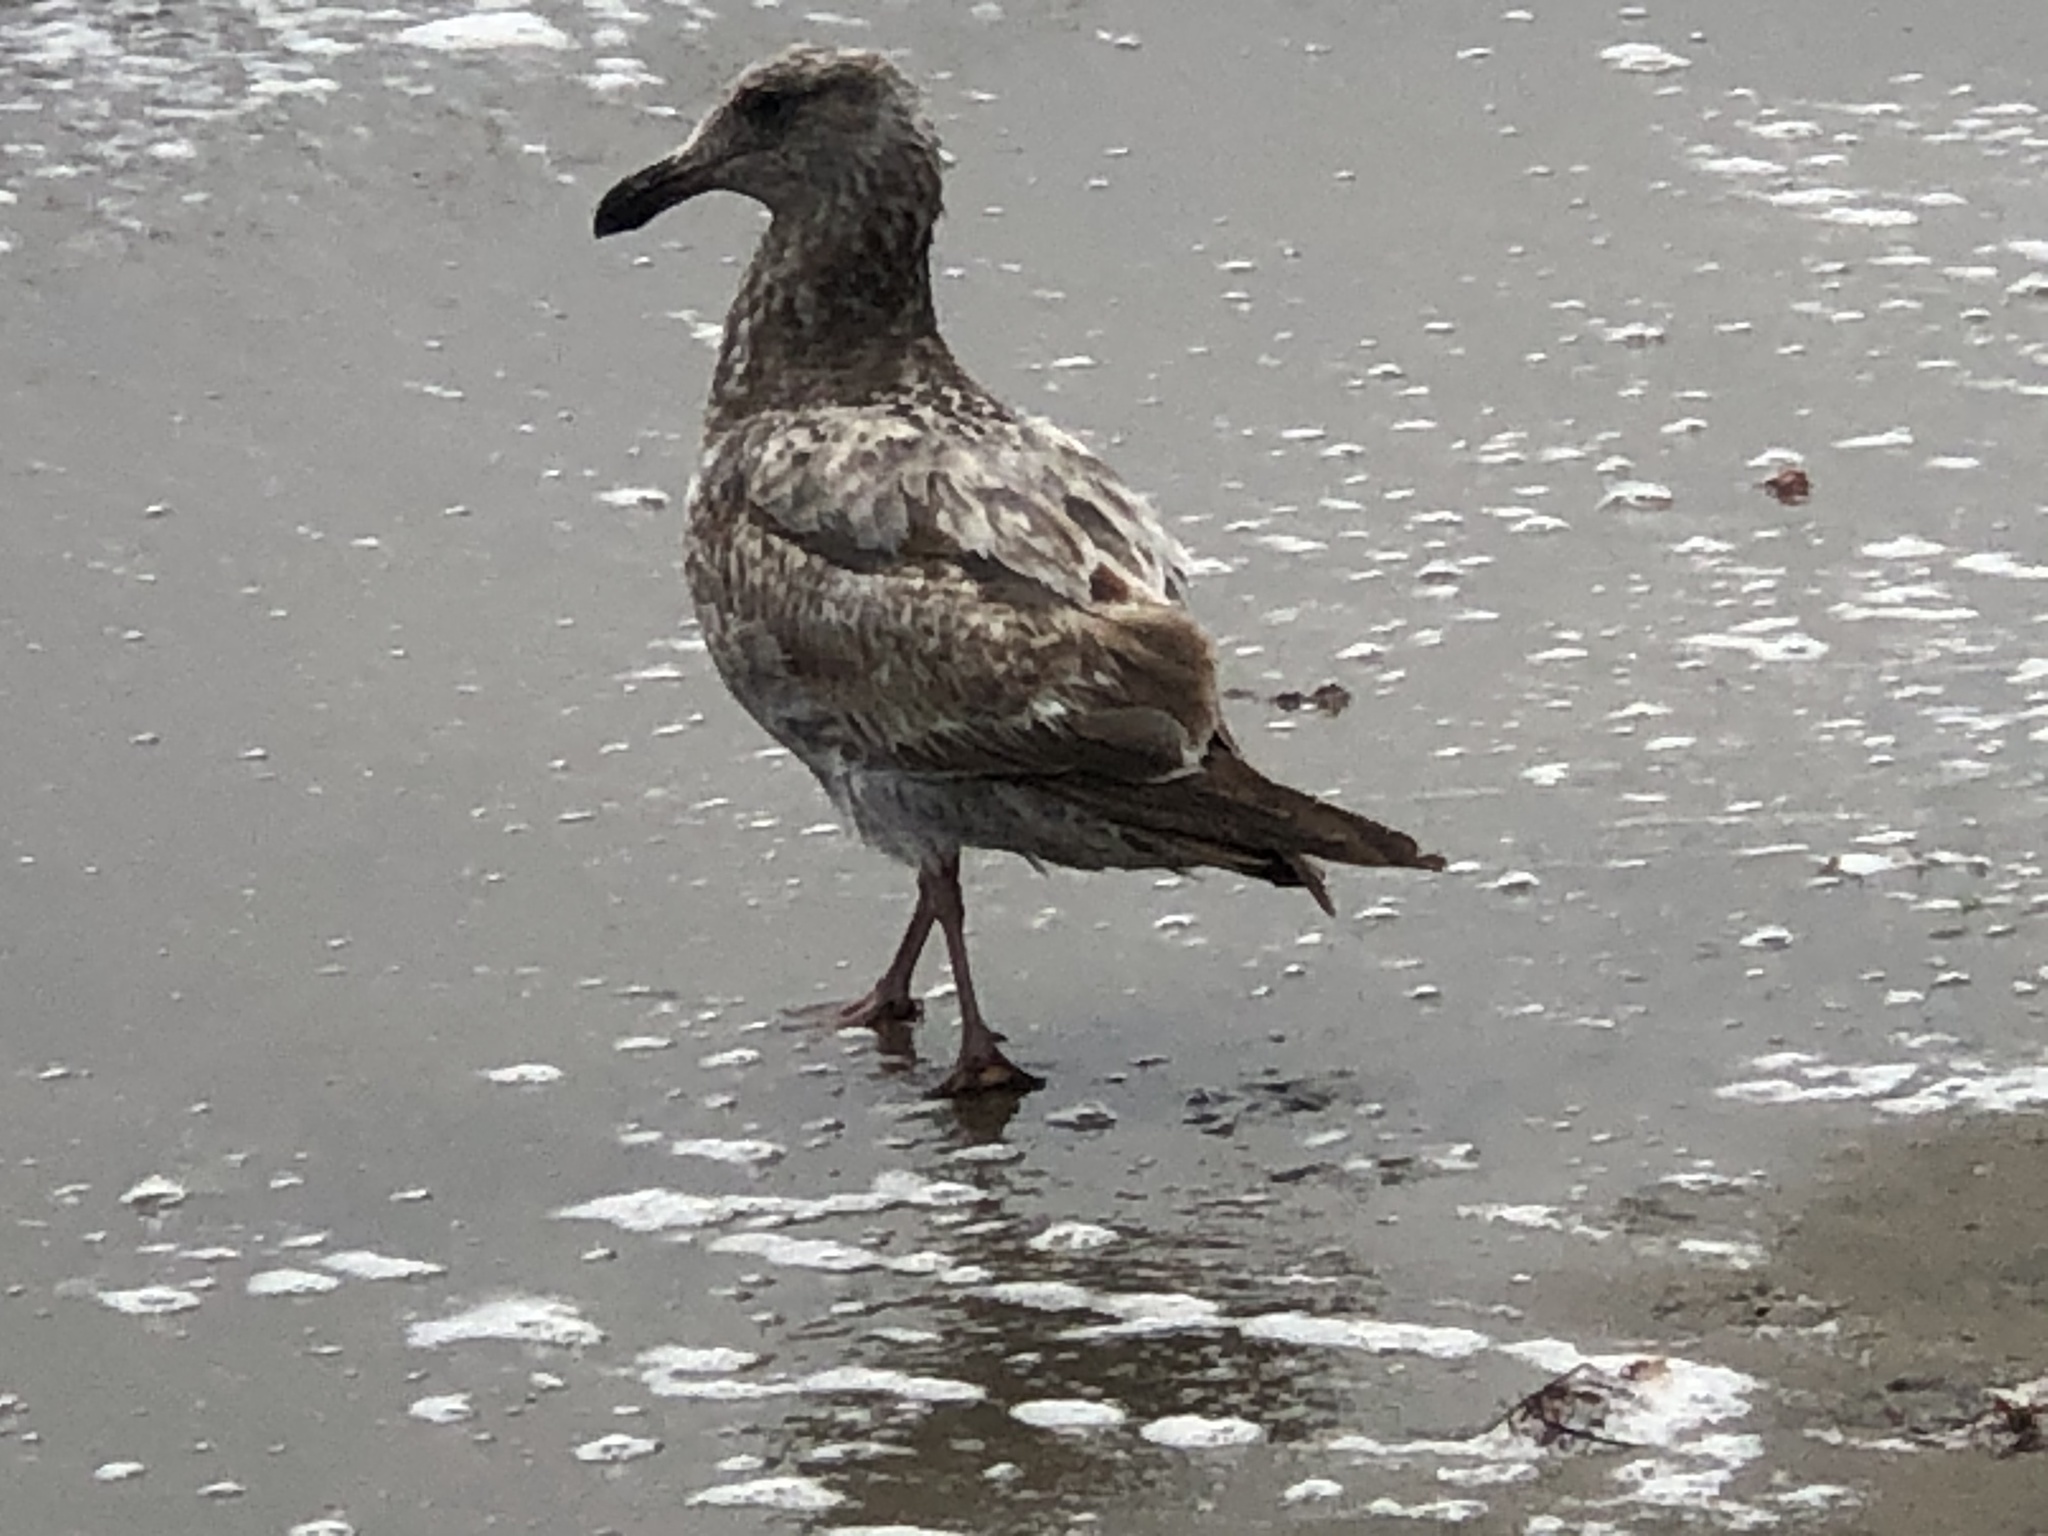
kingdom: Animalia
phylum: Chordata
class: Aves
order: Charadriiformes
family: Laridae
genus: Larus
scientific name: Larus occidentalis
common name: Western gull
